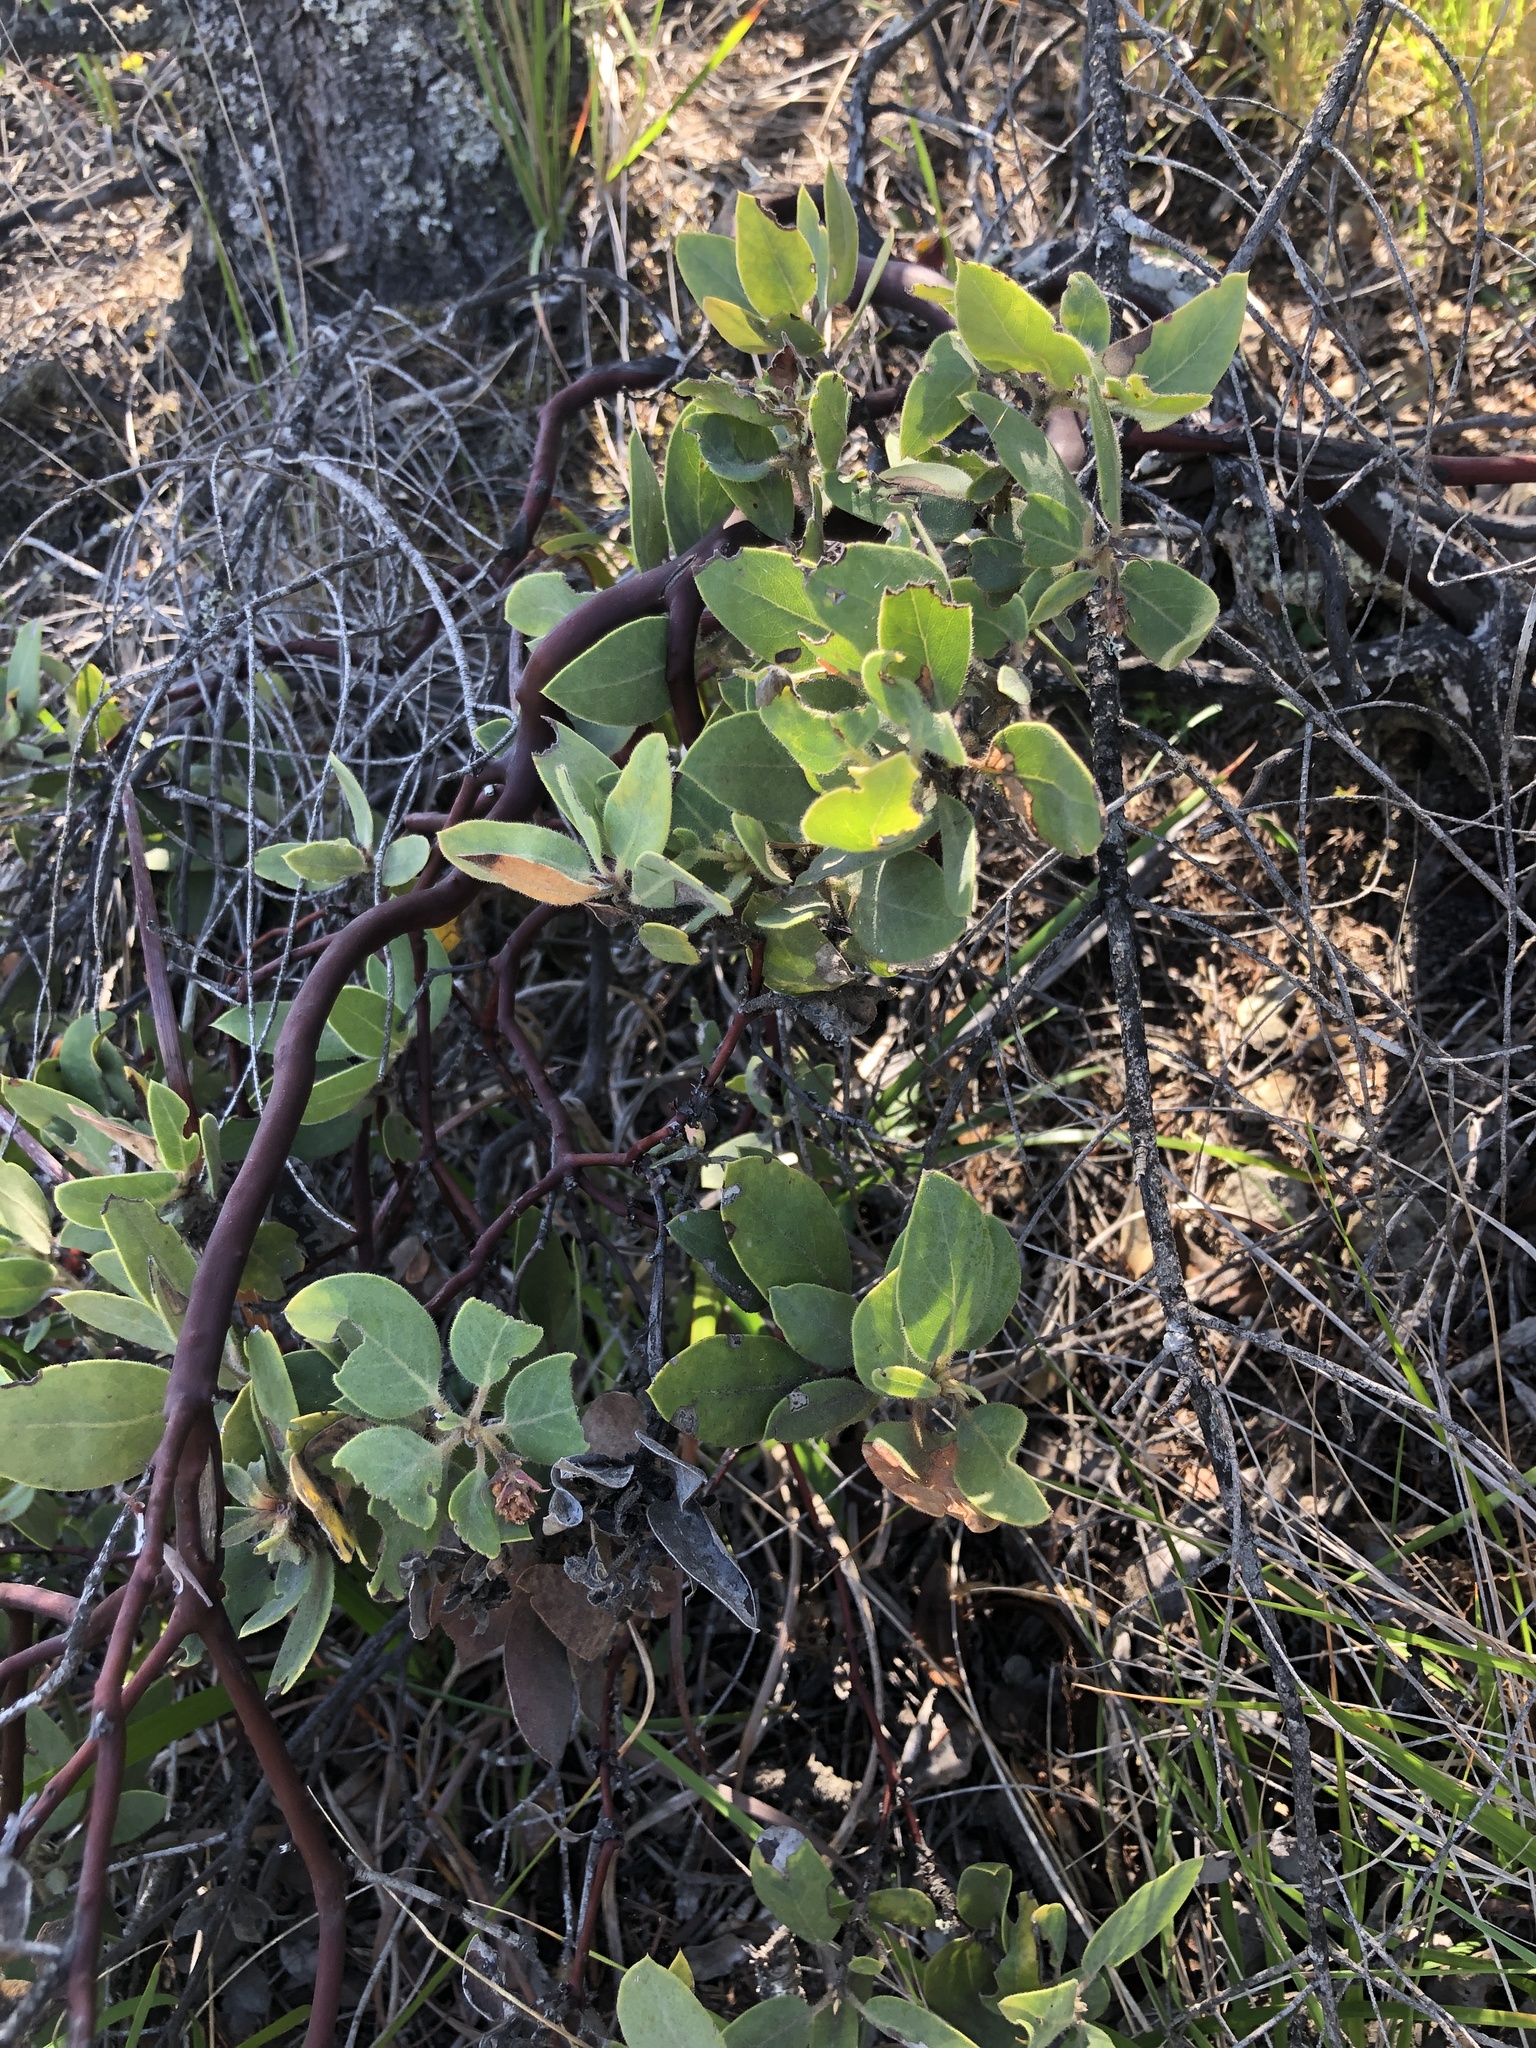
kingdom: Plantae
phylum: Tracheophyta
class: Magnoliopsida
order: Ericales
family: Ericaceae
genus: Arctostaphylos
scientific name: Arctostaphylos glandulosa
